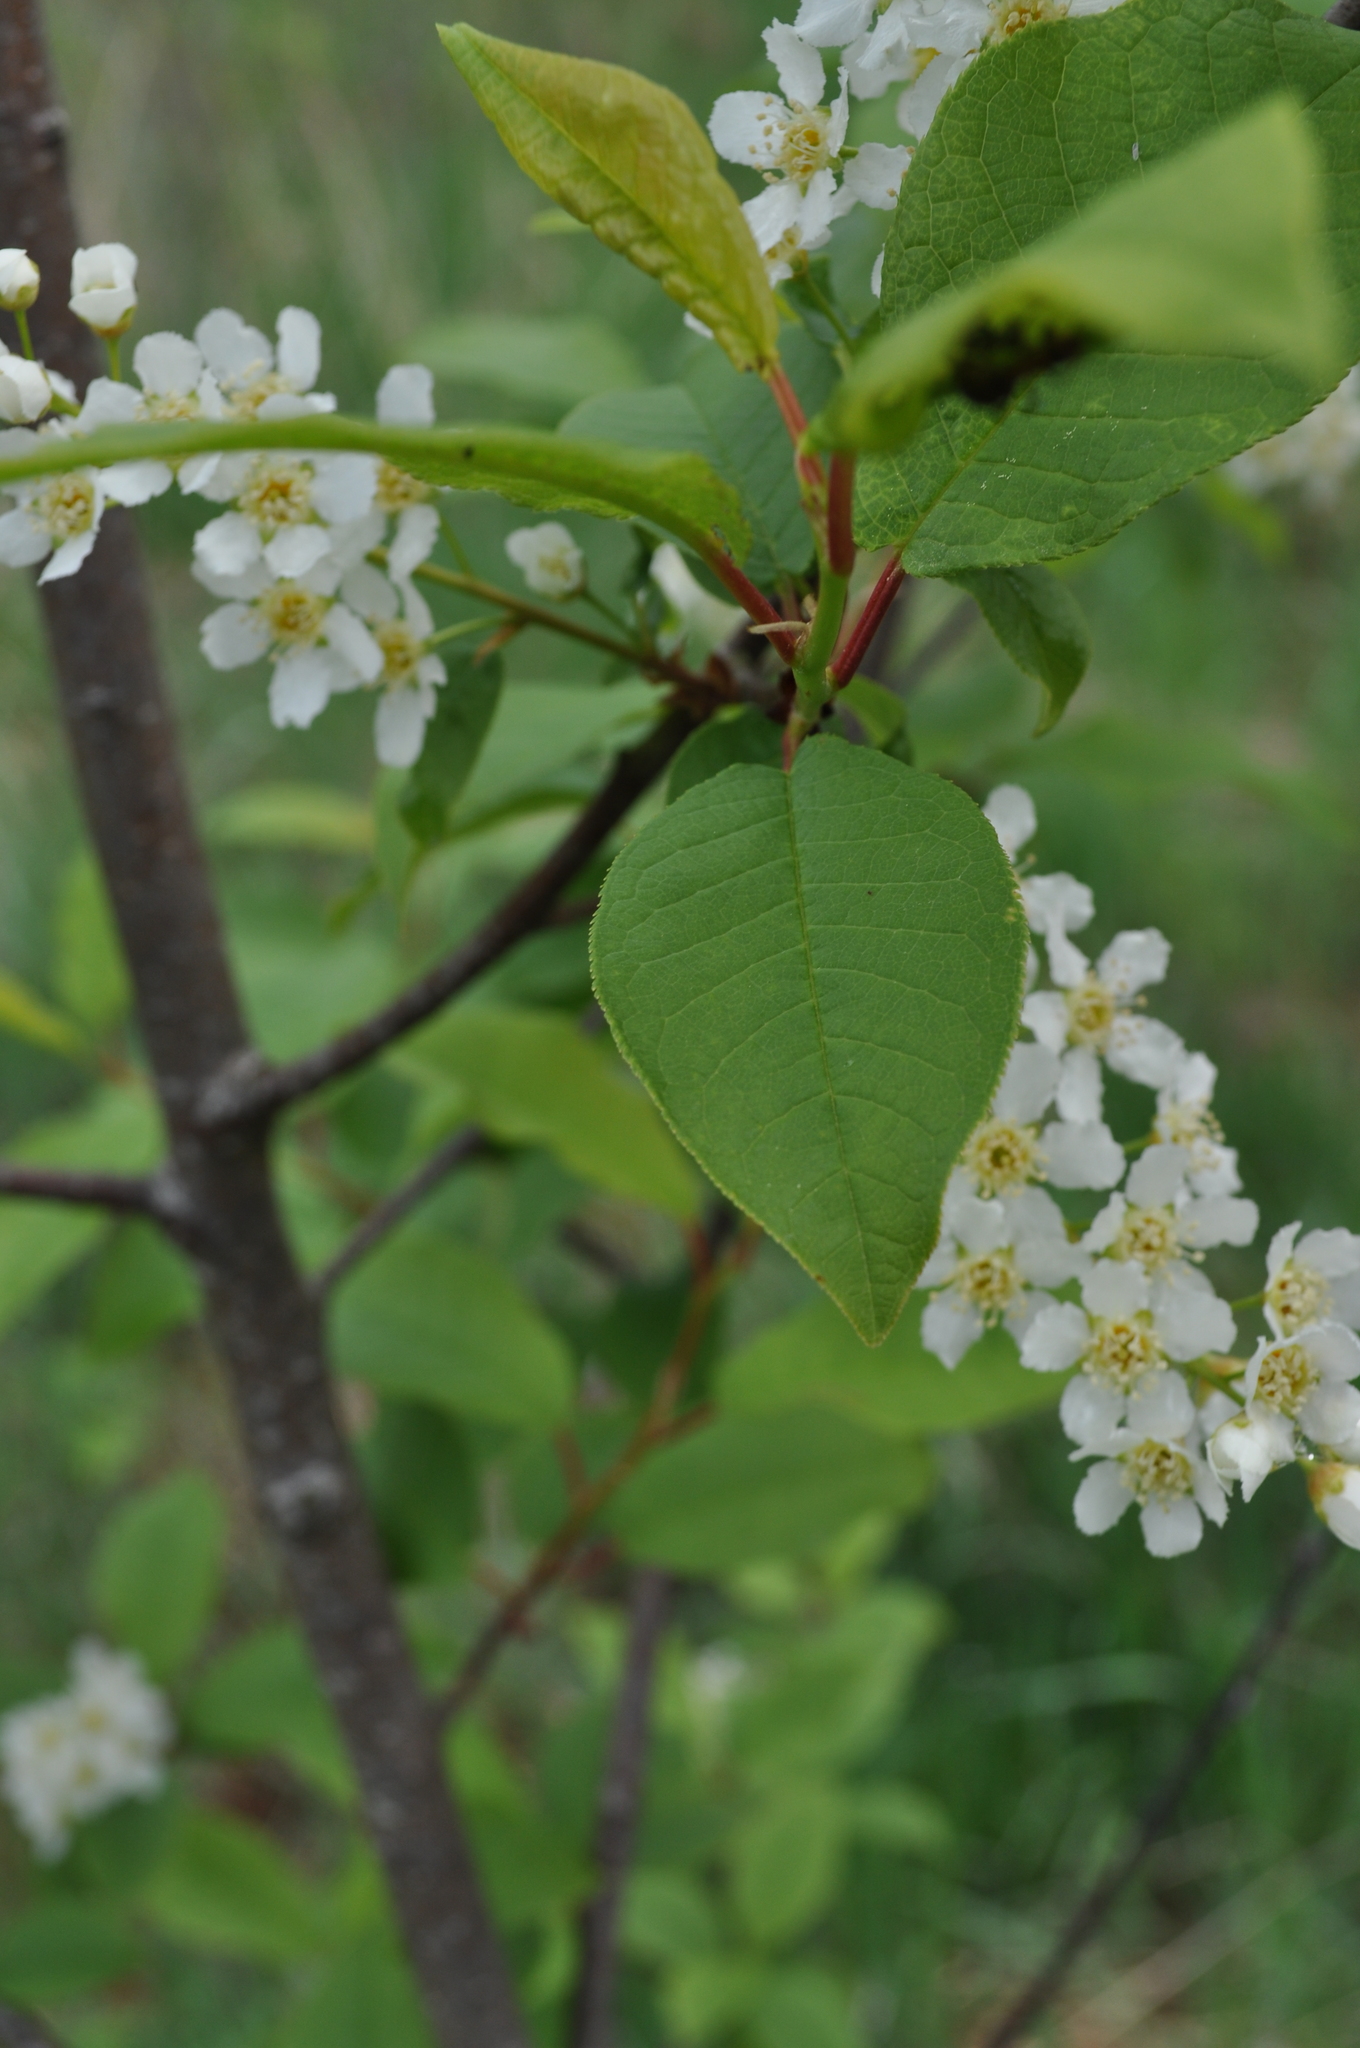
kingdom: Plantae
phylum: Tracheophyta
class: Magnoliopsida
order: Rosales
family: Rosaceae
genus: Prunus
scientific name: Prunus padus
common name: Bird cherry
